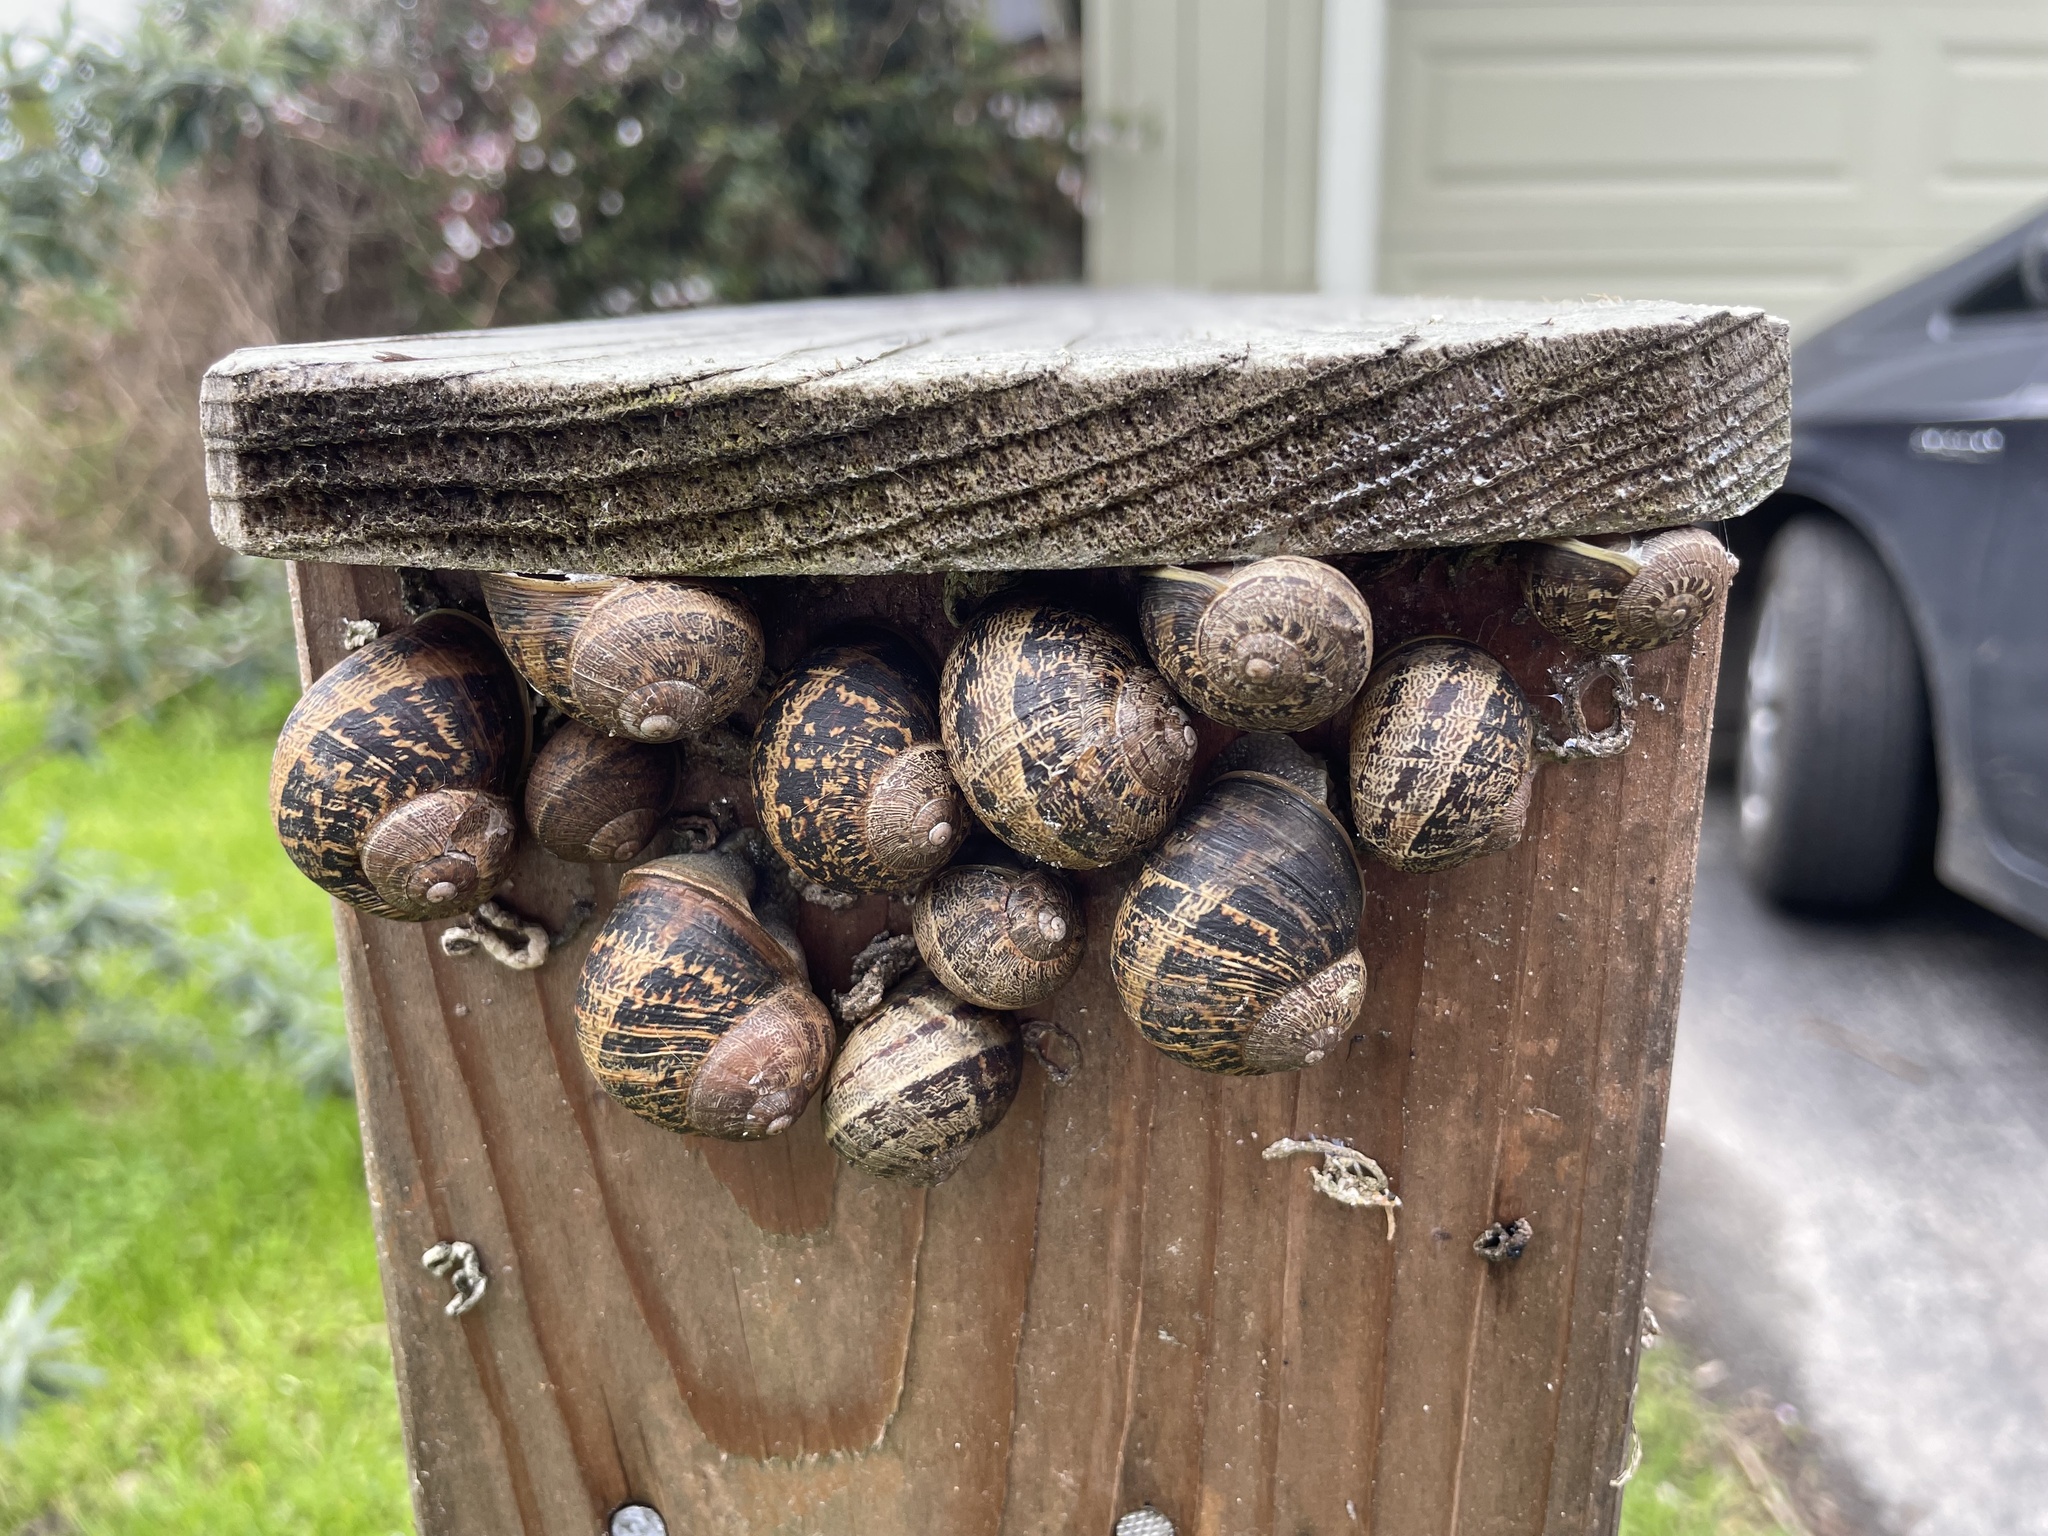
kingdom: Animalia
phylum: Mollusca
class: Gastropoda
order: Stylommatophora
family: Helicidae
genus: Cornu
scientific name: Cornu aspersum
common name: Brown garden snail
